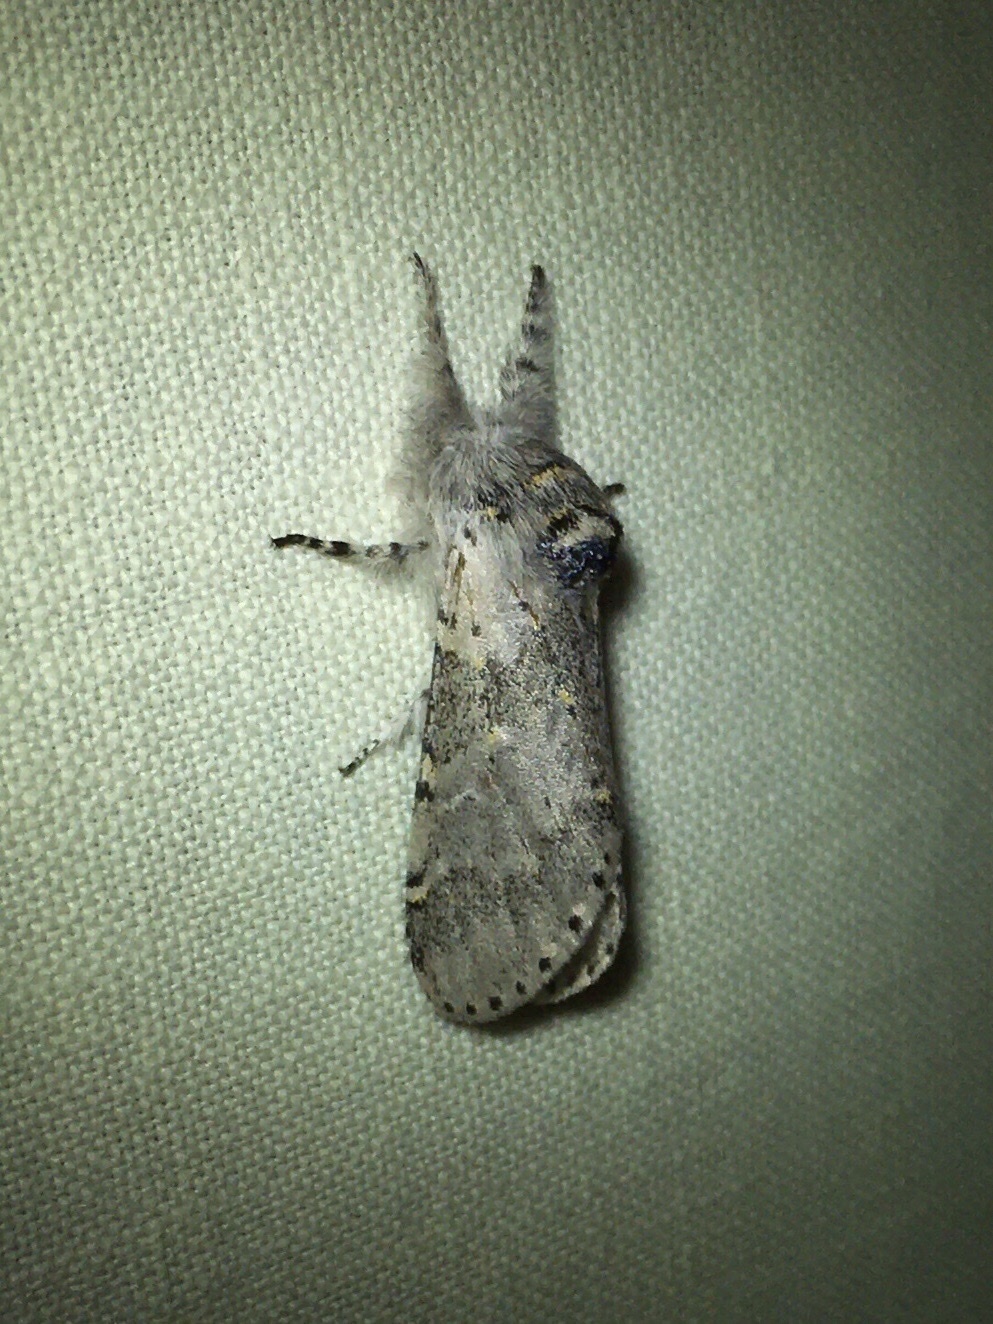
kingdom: Animalia
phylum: Arthropoda
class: Insecta
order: Lepidoptera
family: Notodontidae
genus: Furcula
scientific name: Furcula cinerea
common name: Gray furcula
